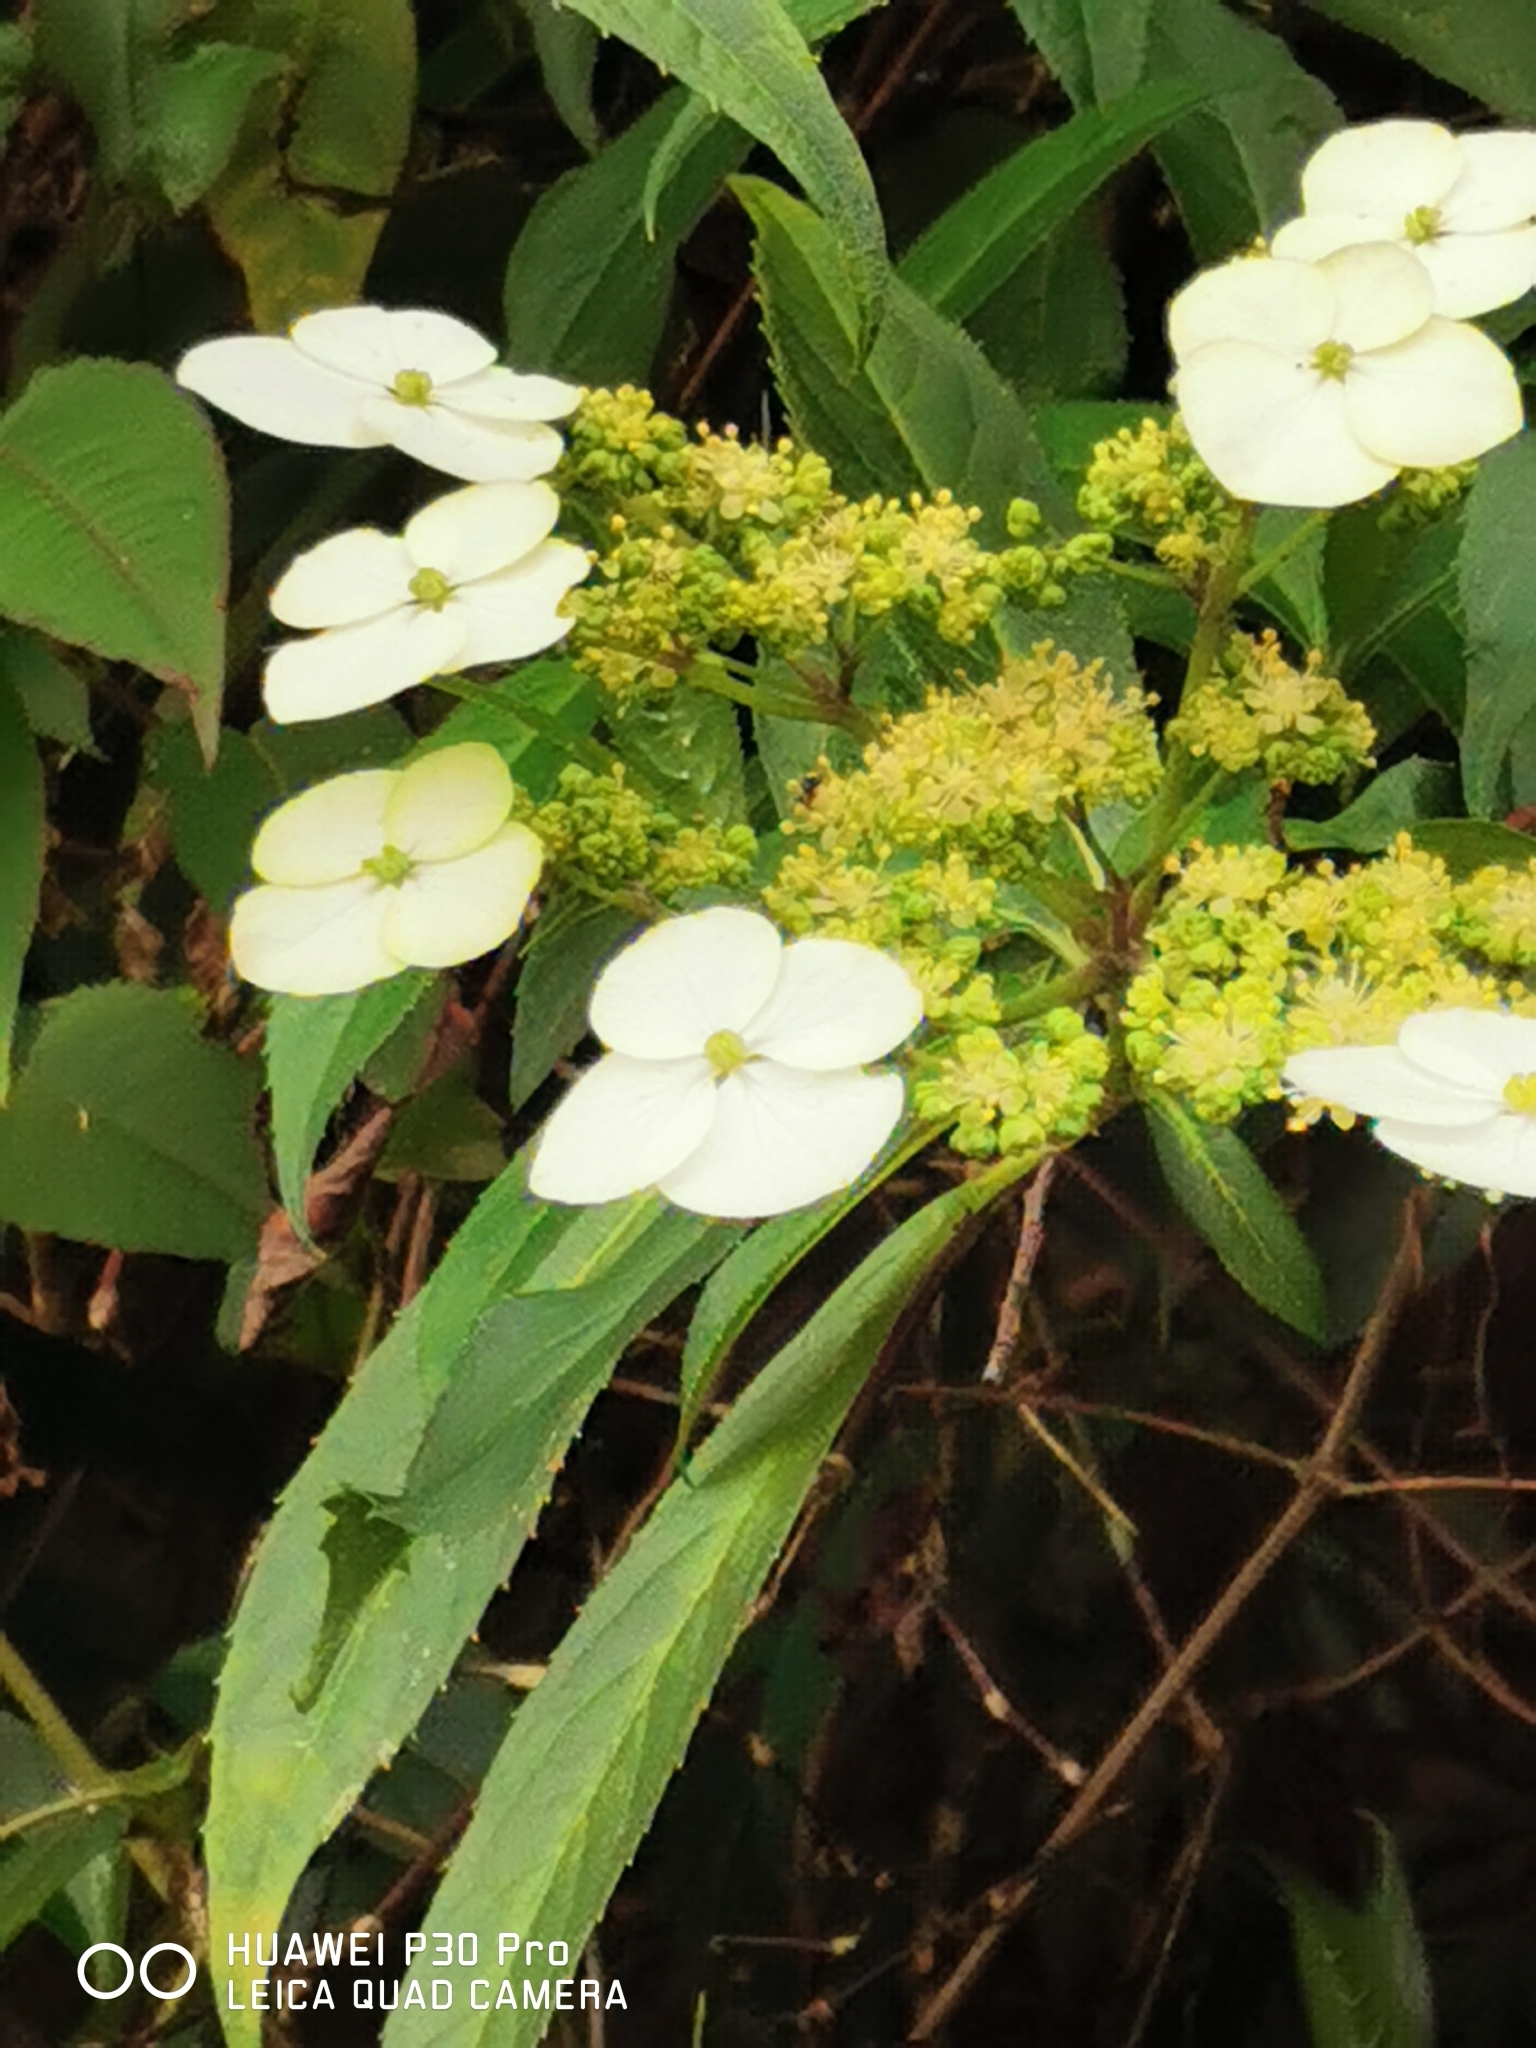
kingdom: Plantae
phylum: Tracheophyta
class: Magnoliopsida
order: Cornales
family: Hydrangeaceae
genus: Hydrangea
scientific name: Hydrangea chinensis
